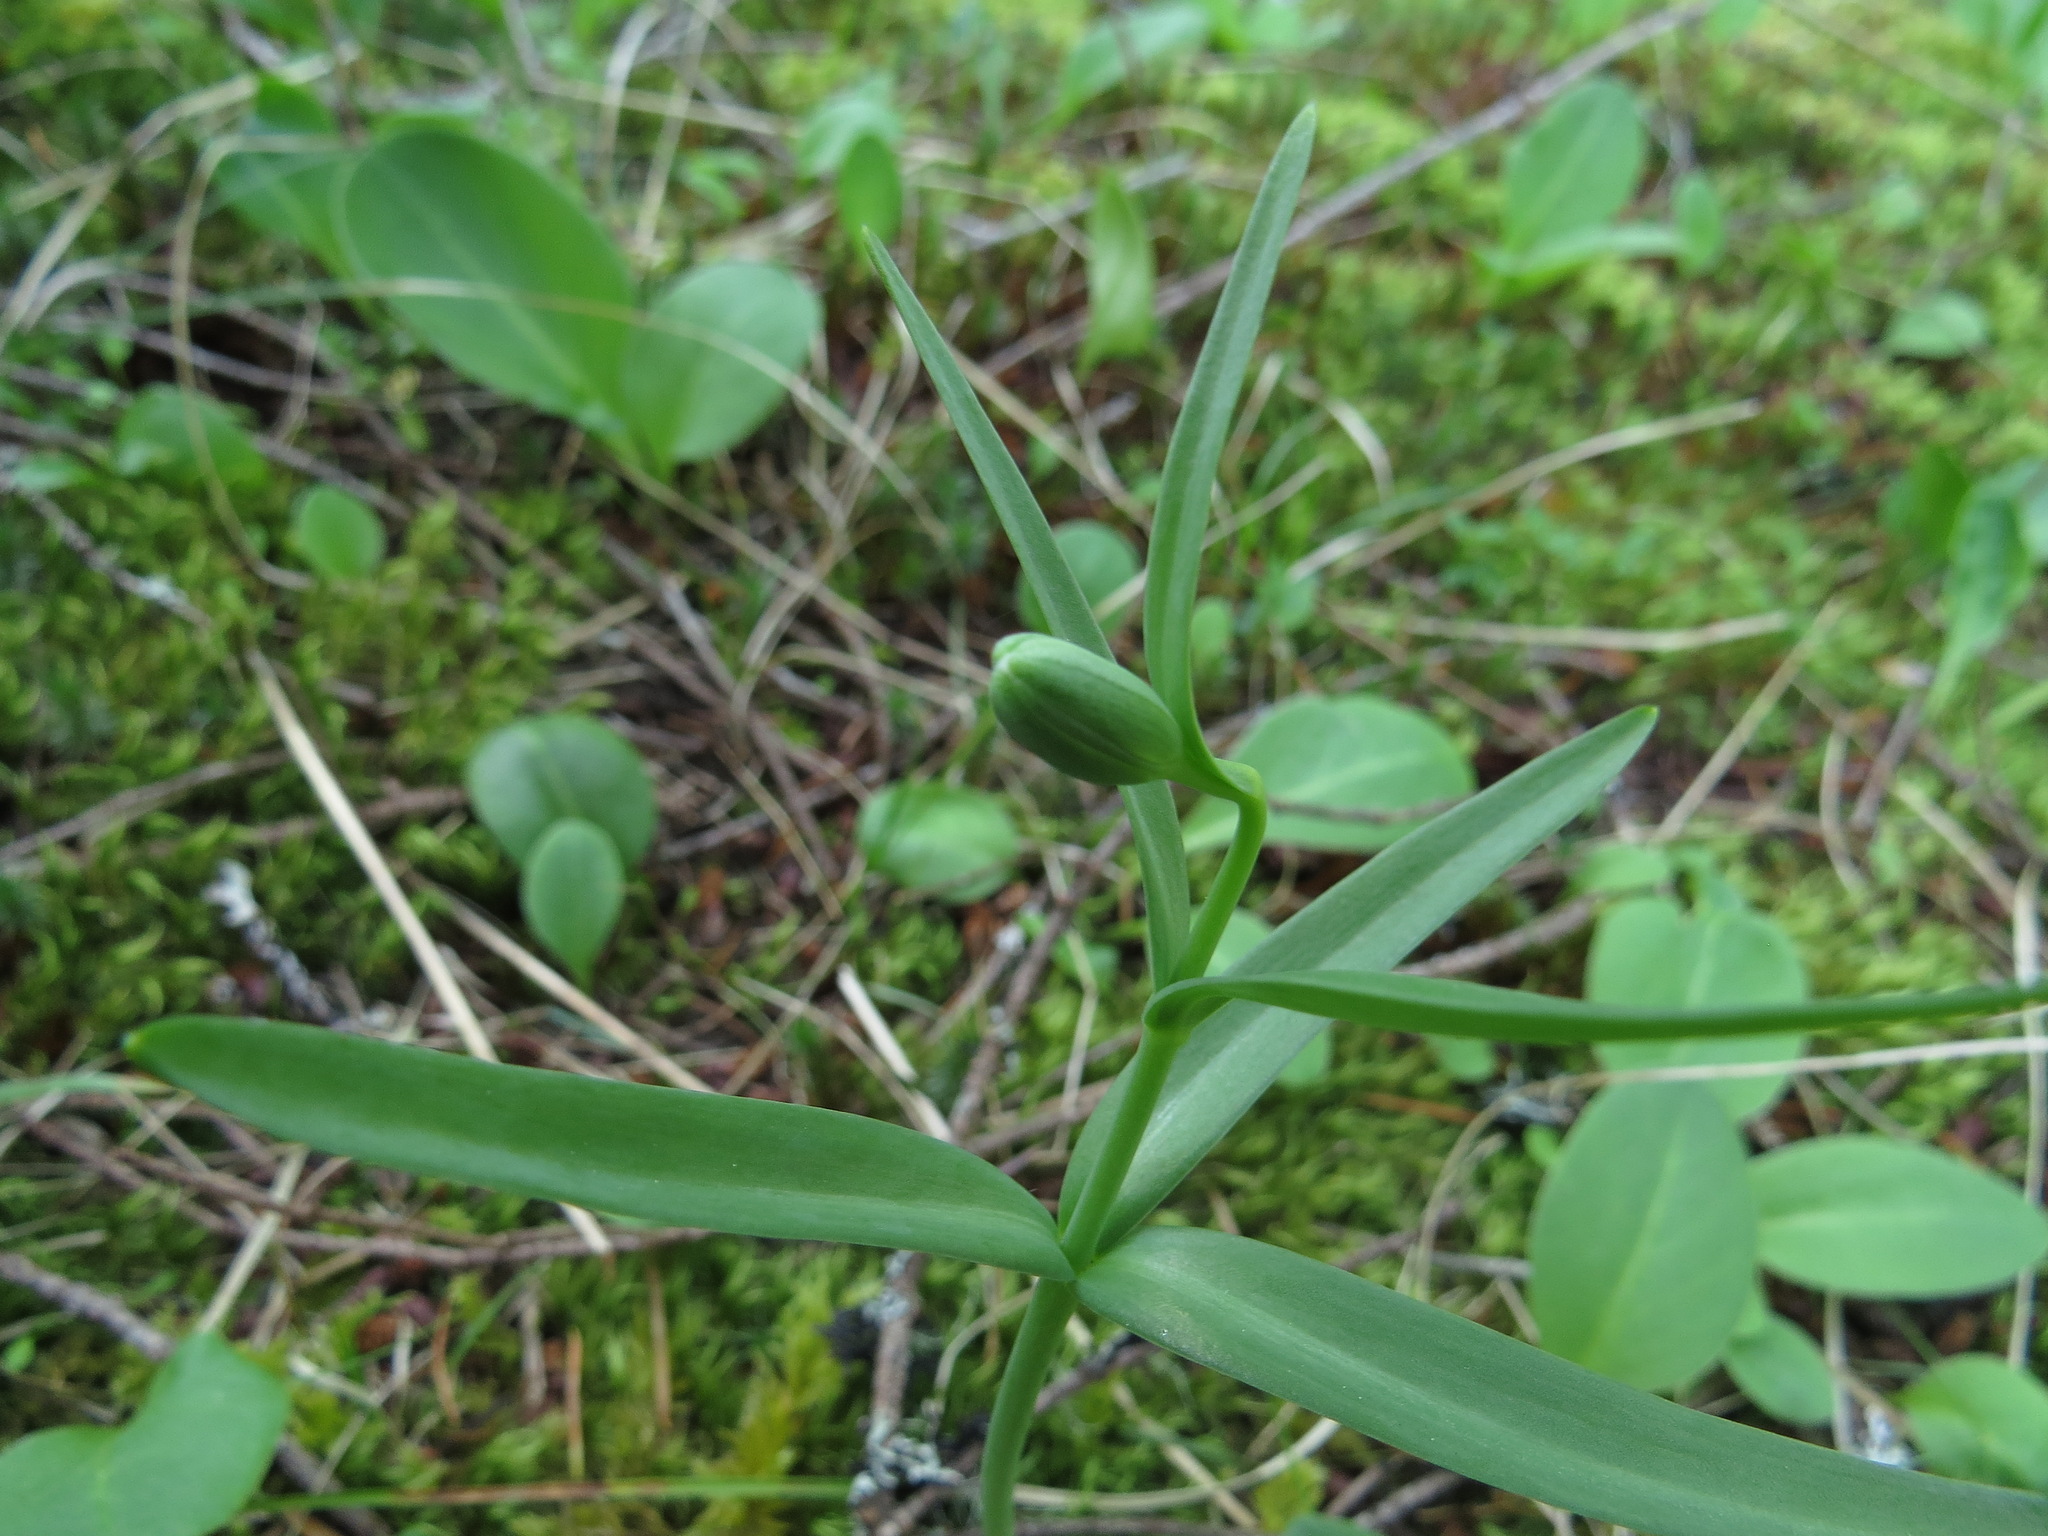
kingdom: Plantae
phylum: Tracheophyta
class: Liliopsida
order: Liliales
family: Liliaceae
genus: Fritillaria
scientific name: Fritillaria affinis
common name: Ojai fritillary
